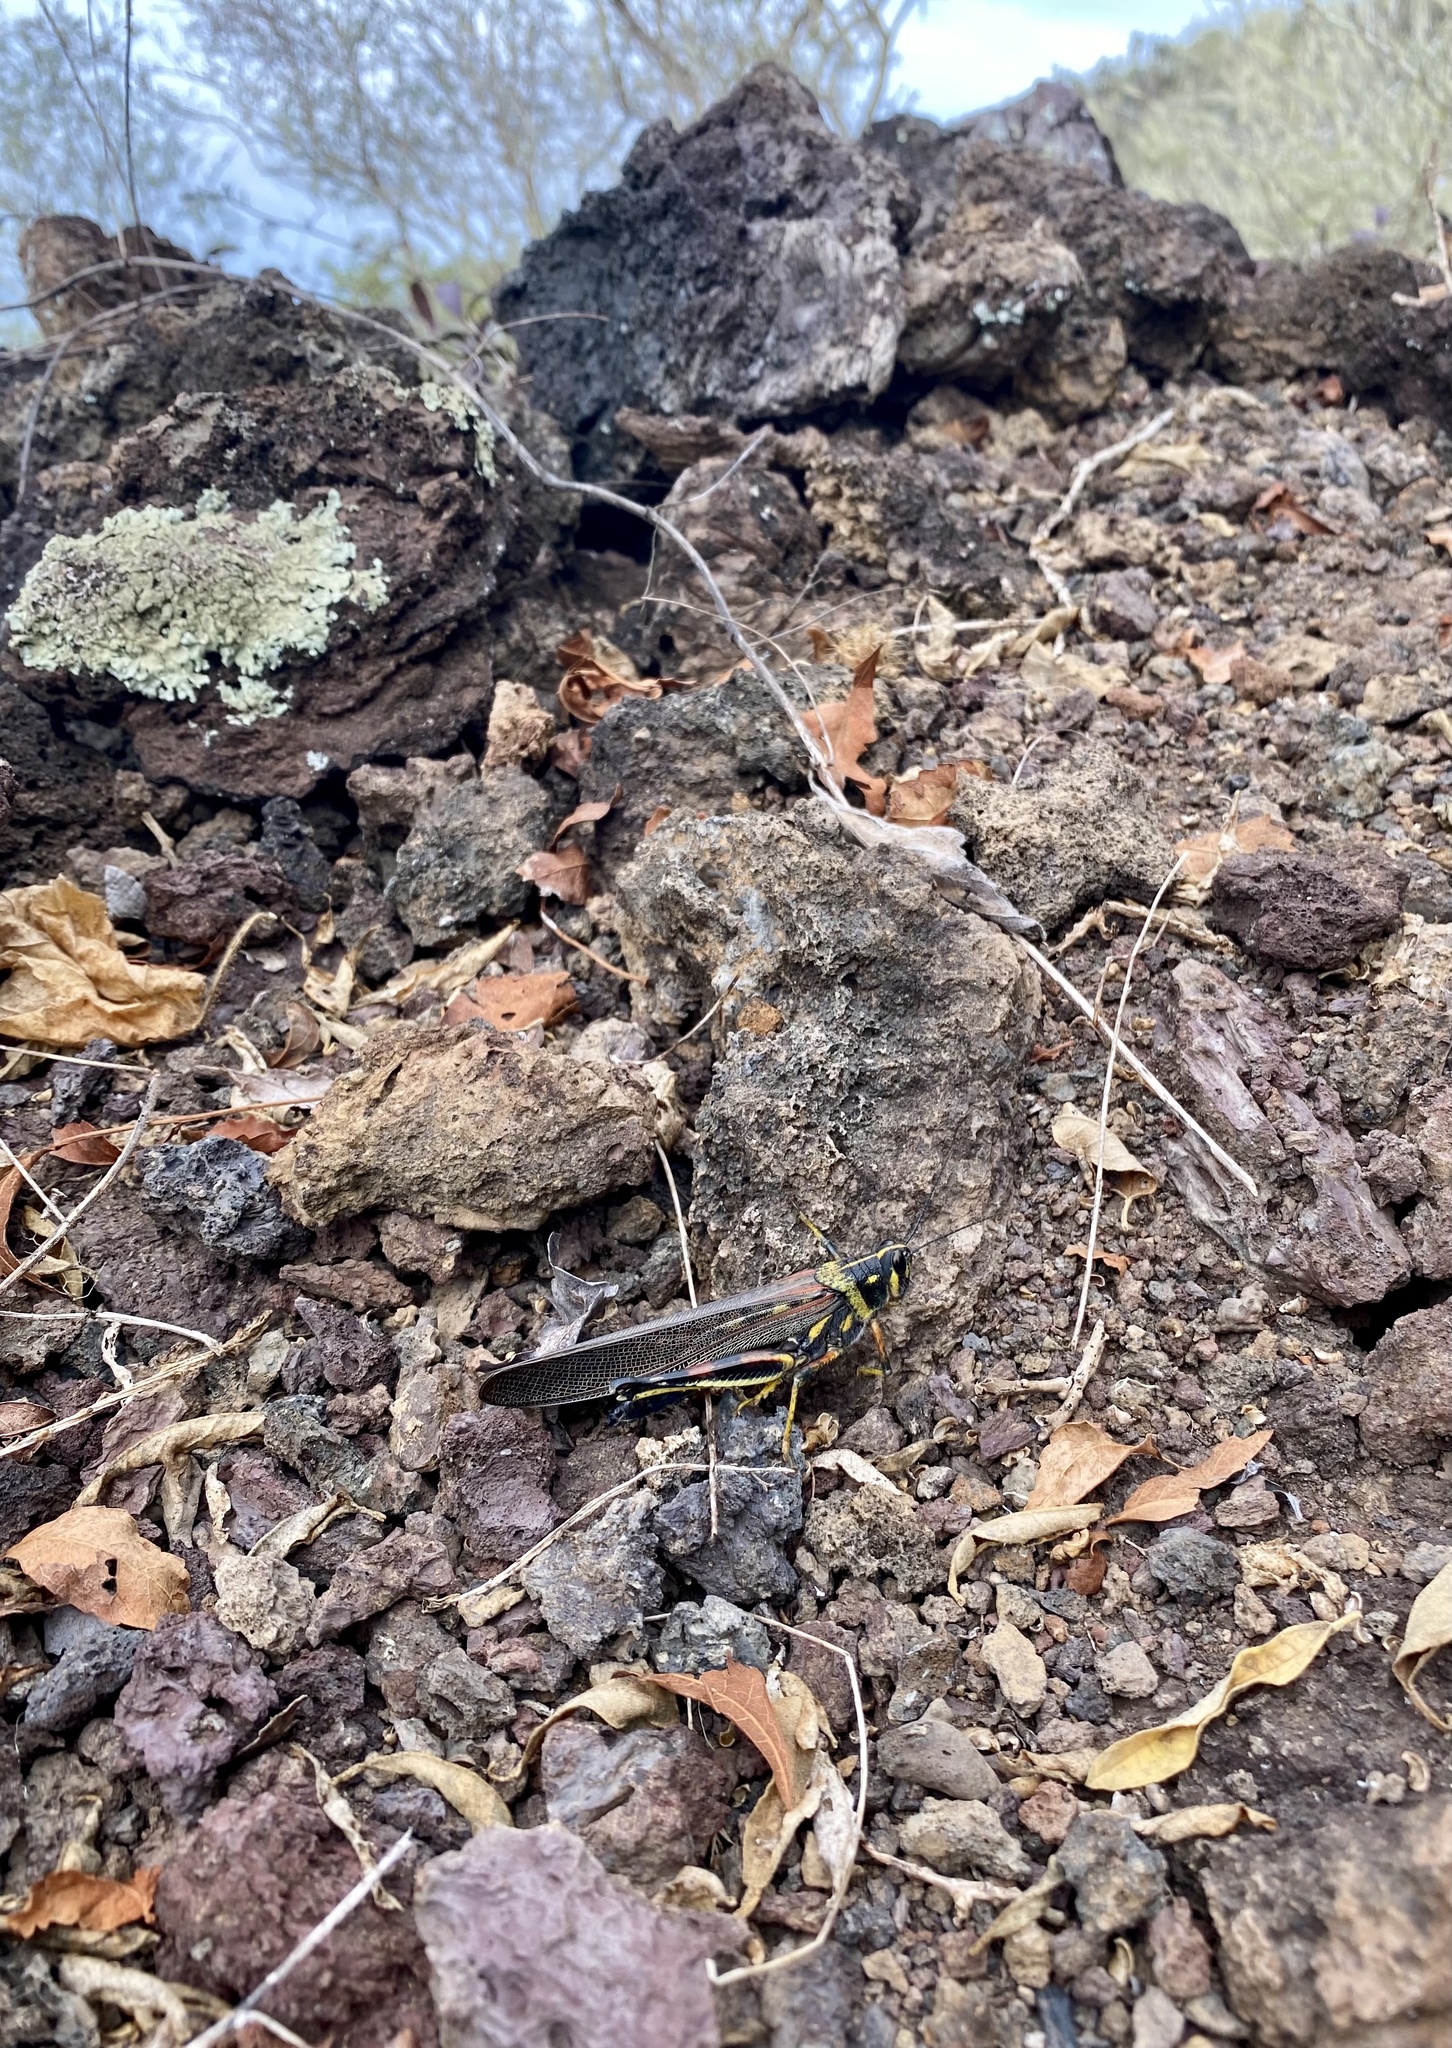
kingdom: Animalia
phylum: Arthropoda
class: Insecta
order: Orthoptera
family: Acrididae
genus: Schistocerca
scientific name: Schistocerca melanocera
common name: Large painted locust
